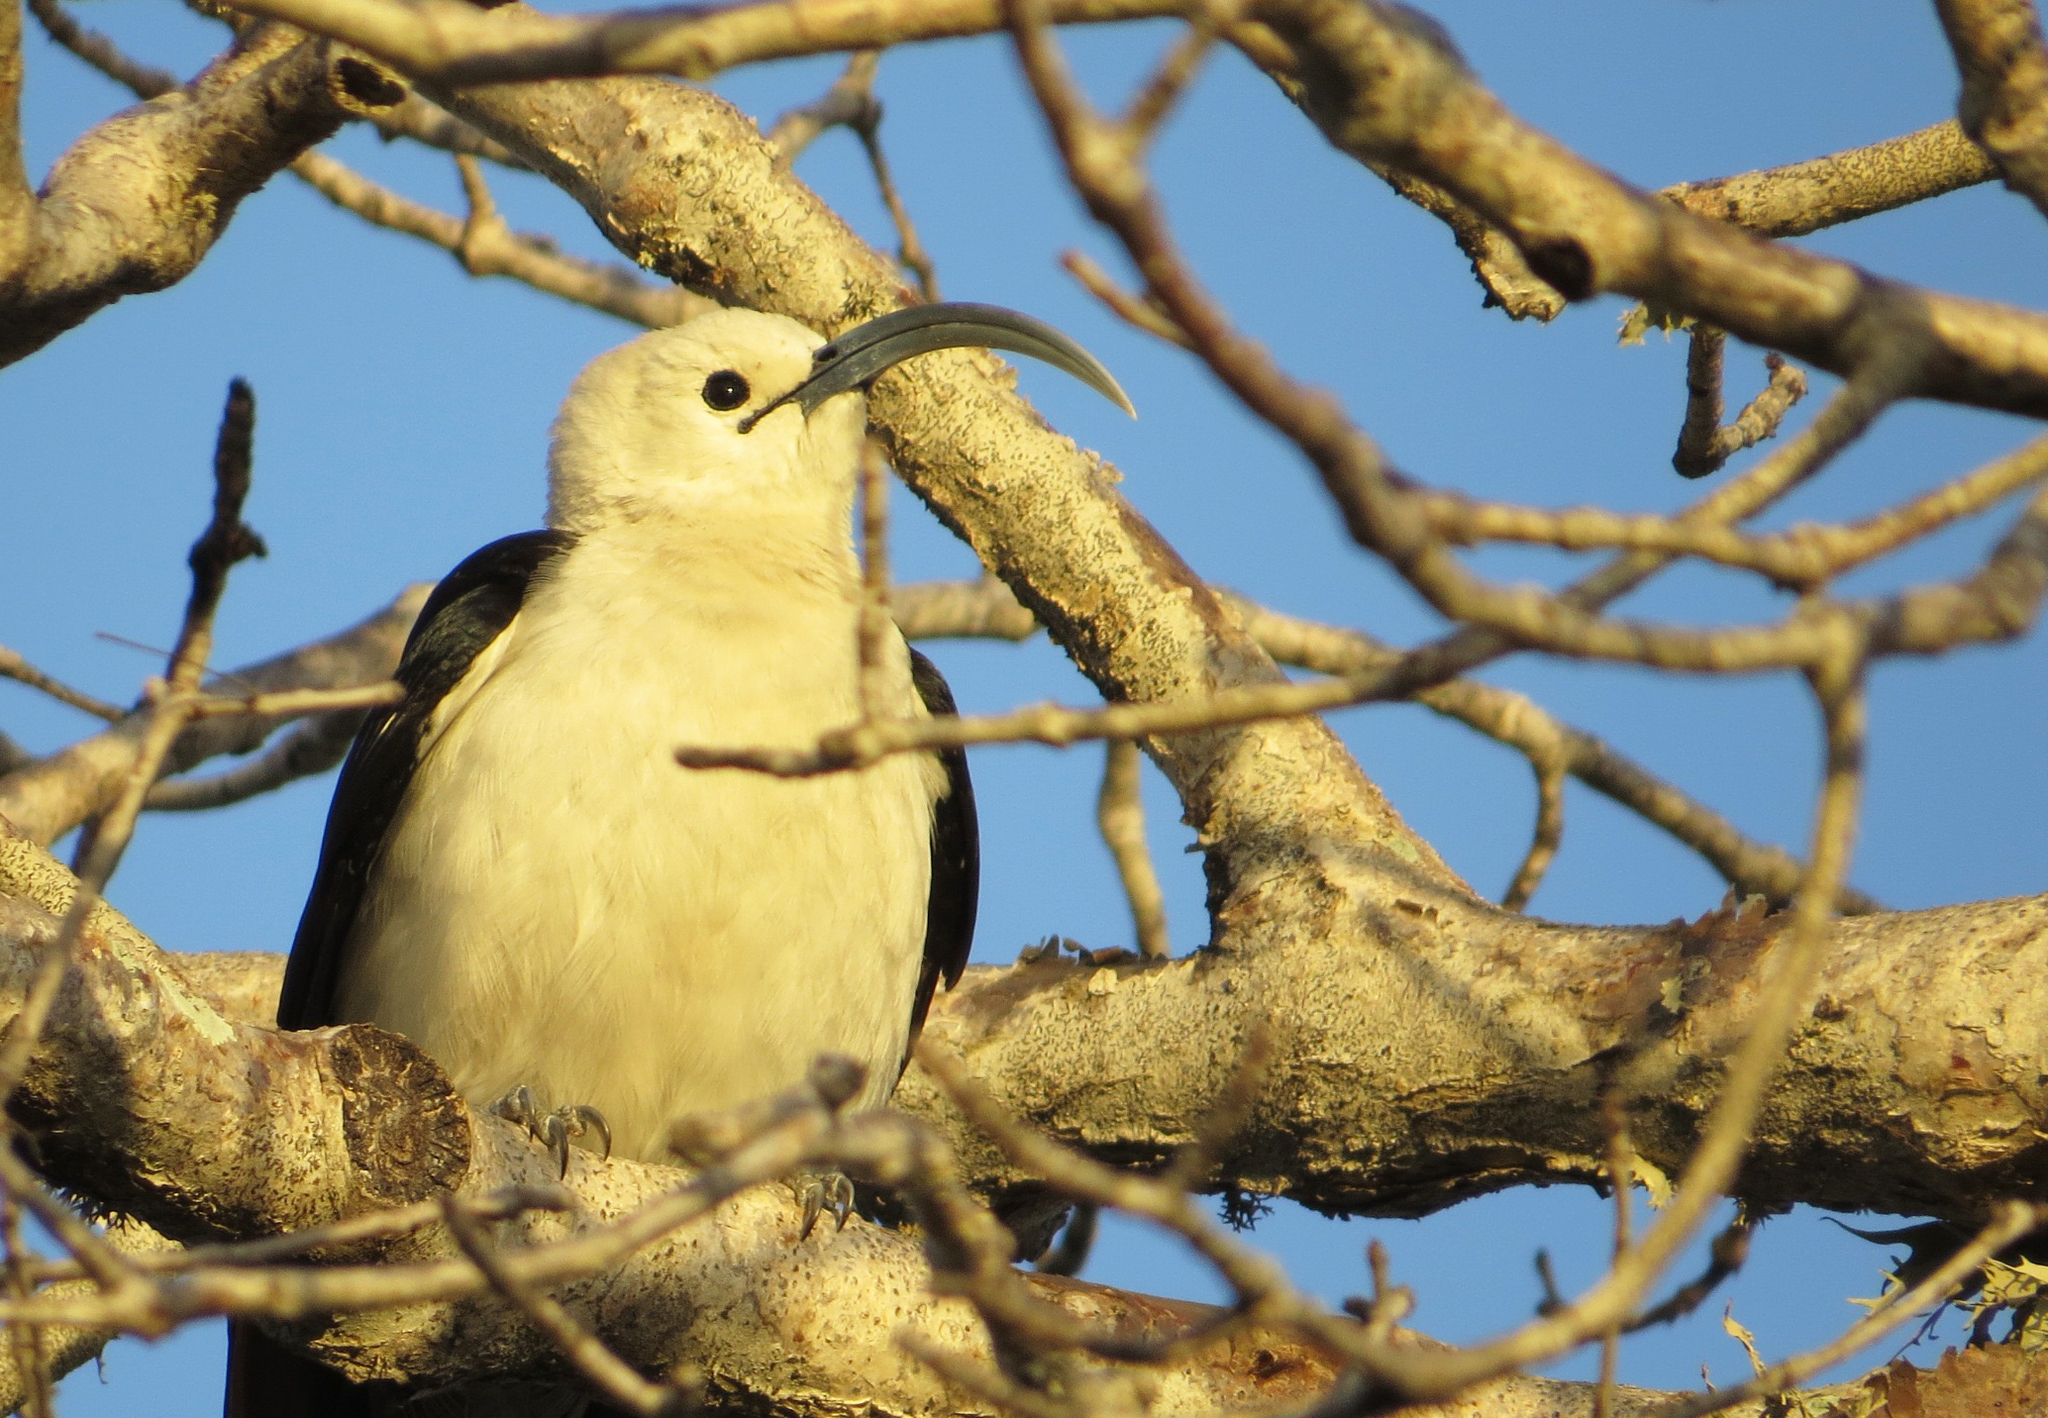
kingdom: Animalia
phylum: Chordata
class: Aves
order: Passeriformes
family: Vangidae
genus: Falculea
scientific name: Falculea palliata
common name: Sickle-billed vanga
